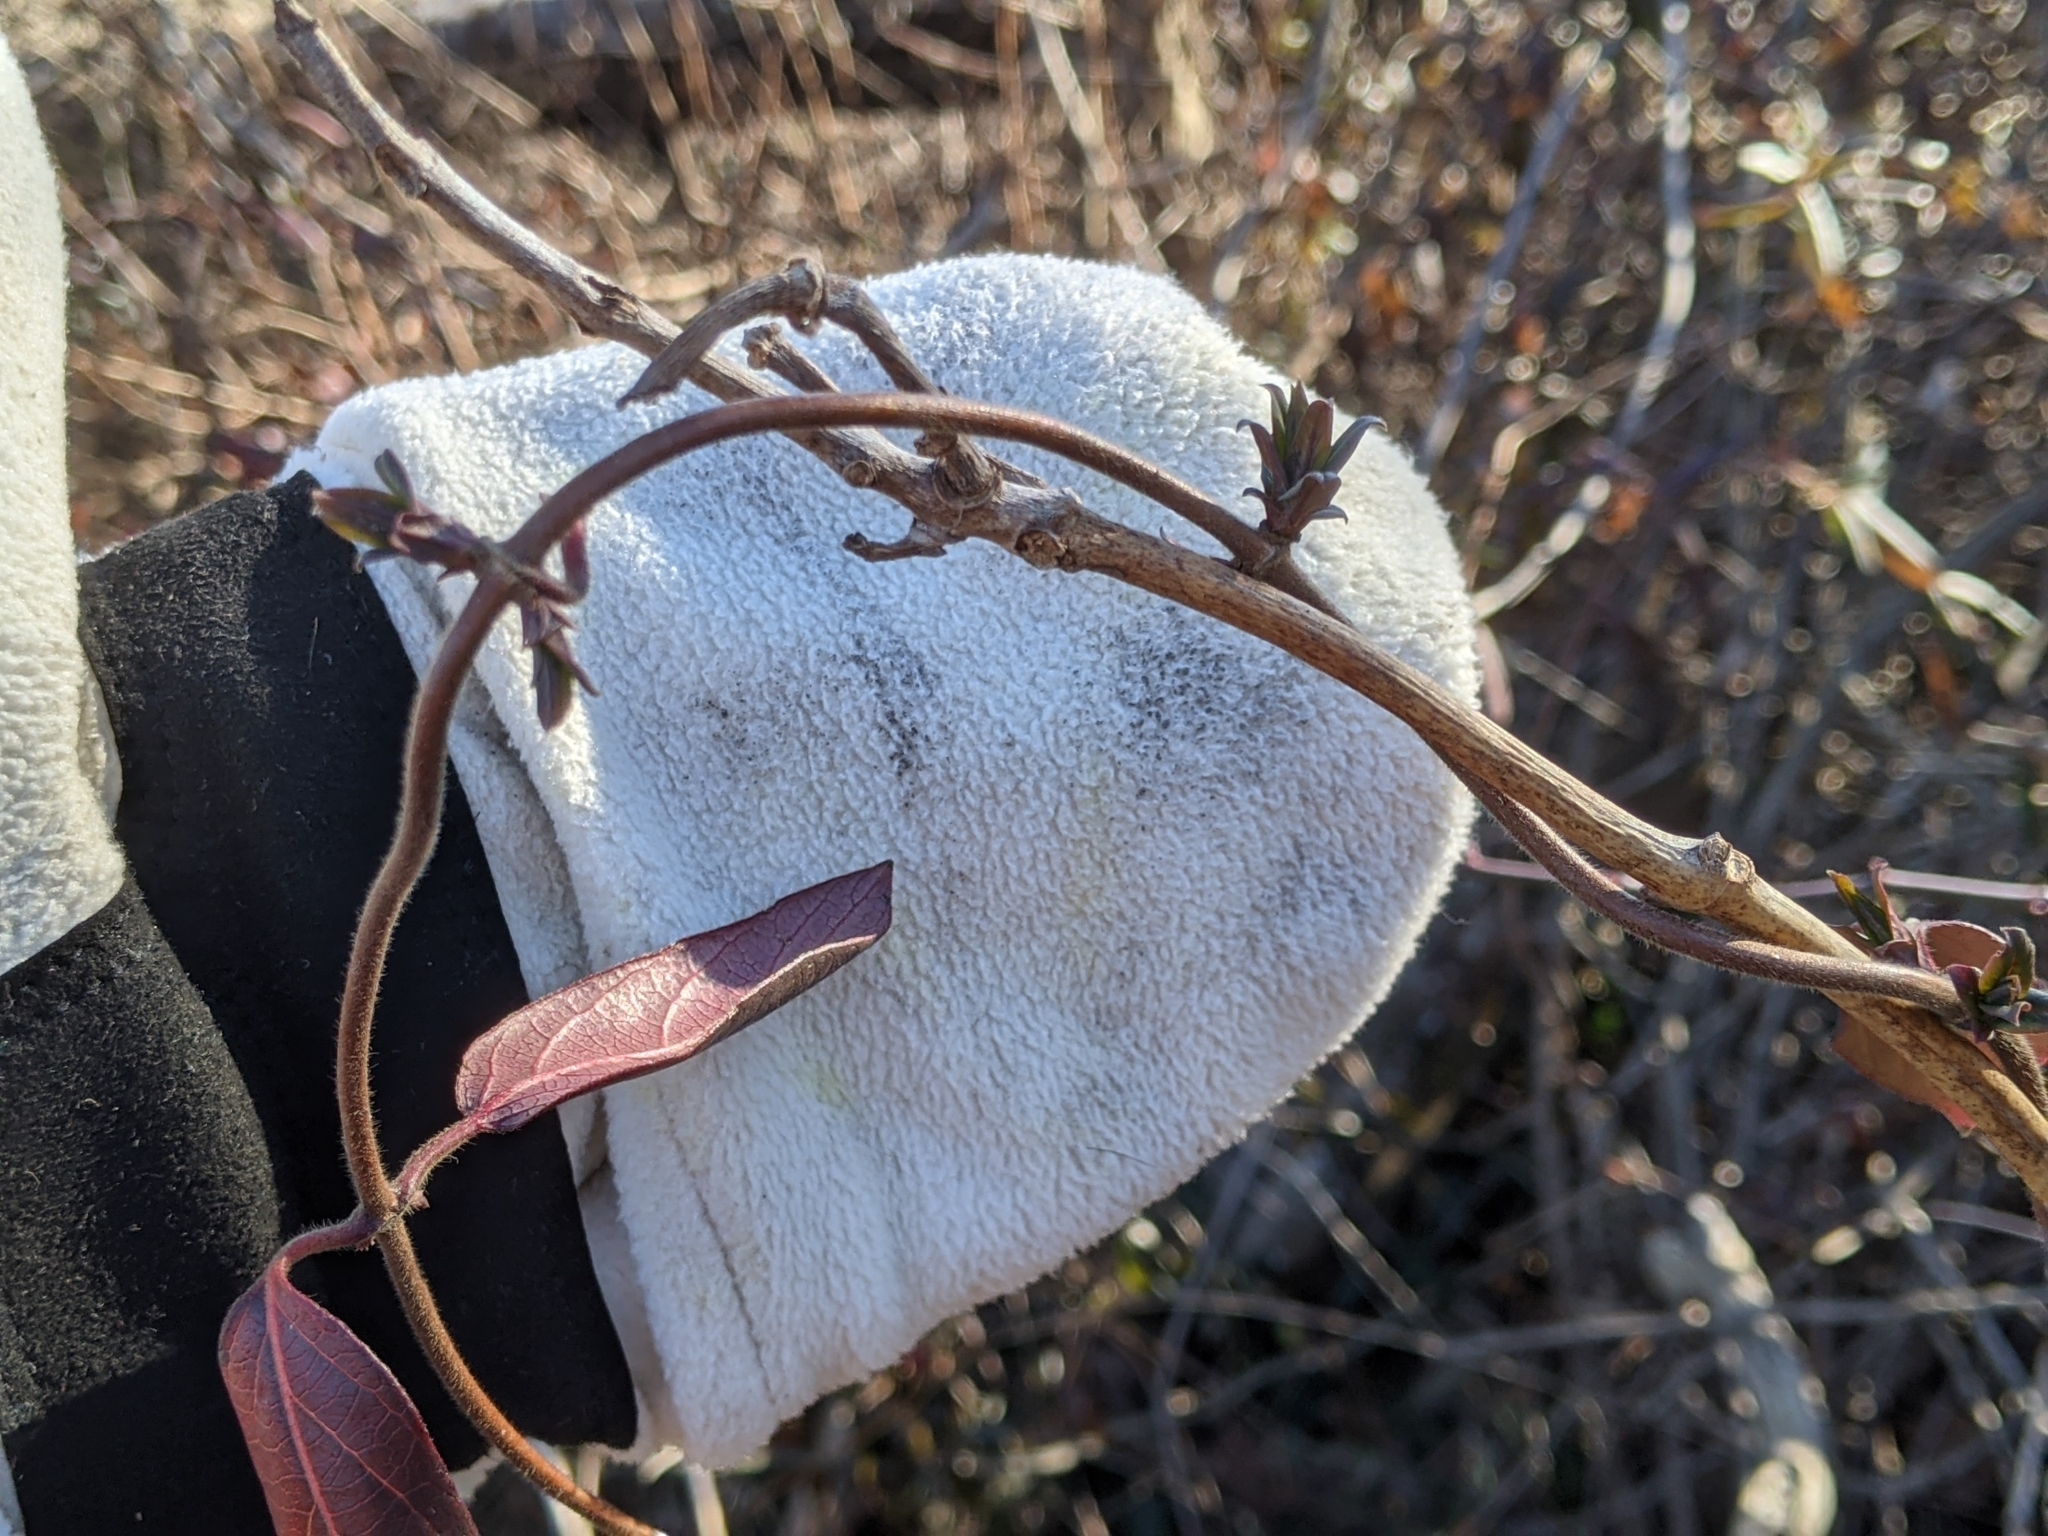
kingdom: Plantae
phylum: Tracheophyta
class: Magnoliopsida
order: Dipsacales
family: Caprifoliaceae
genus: Lonicera
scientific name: Lonicera japonica
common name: Japanese honeysuckle
